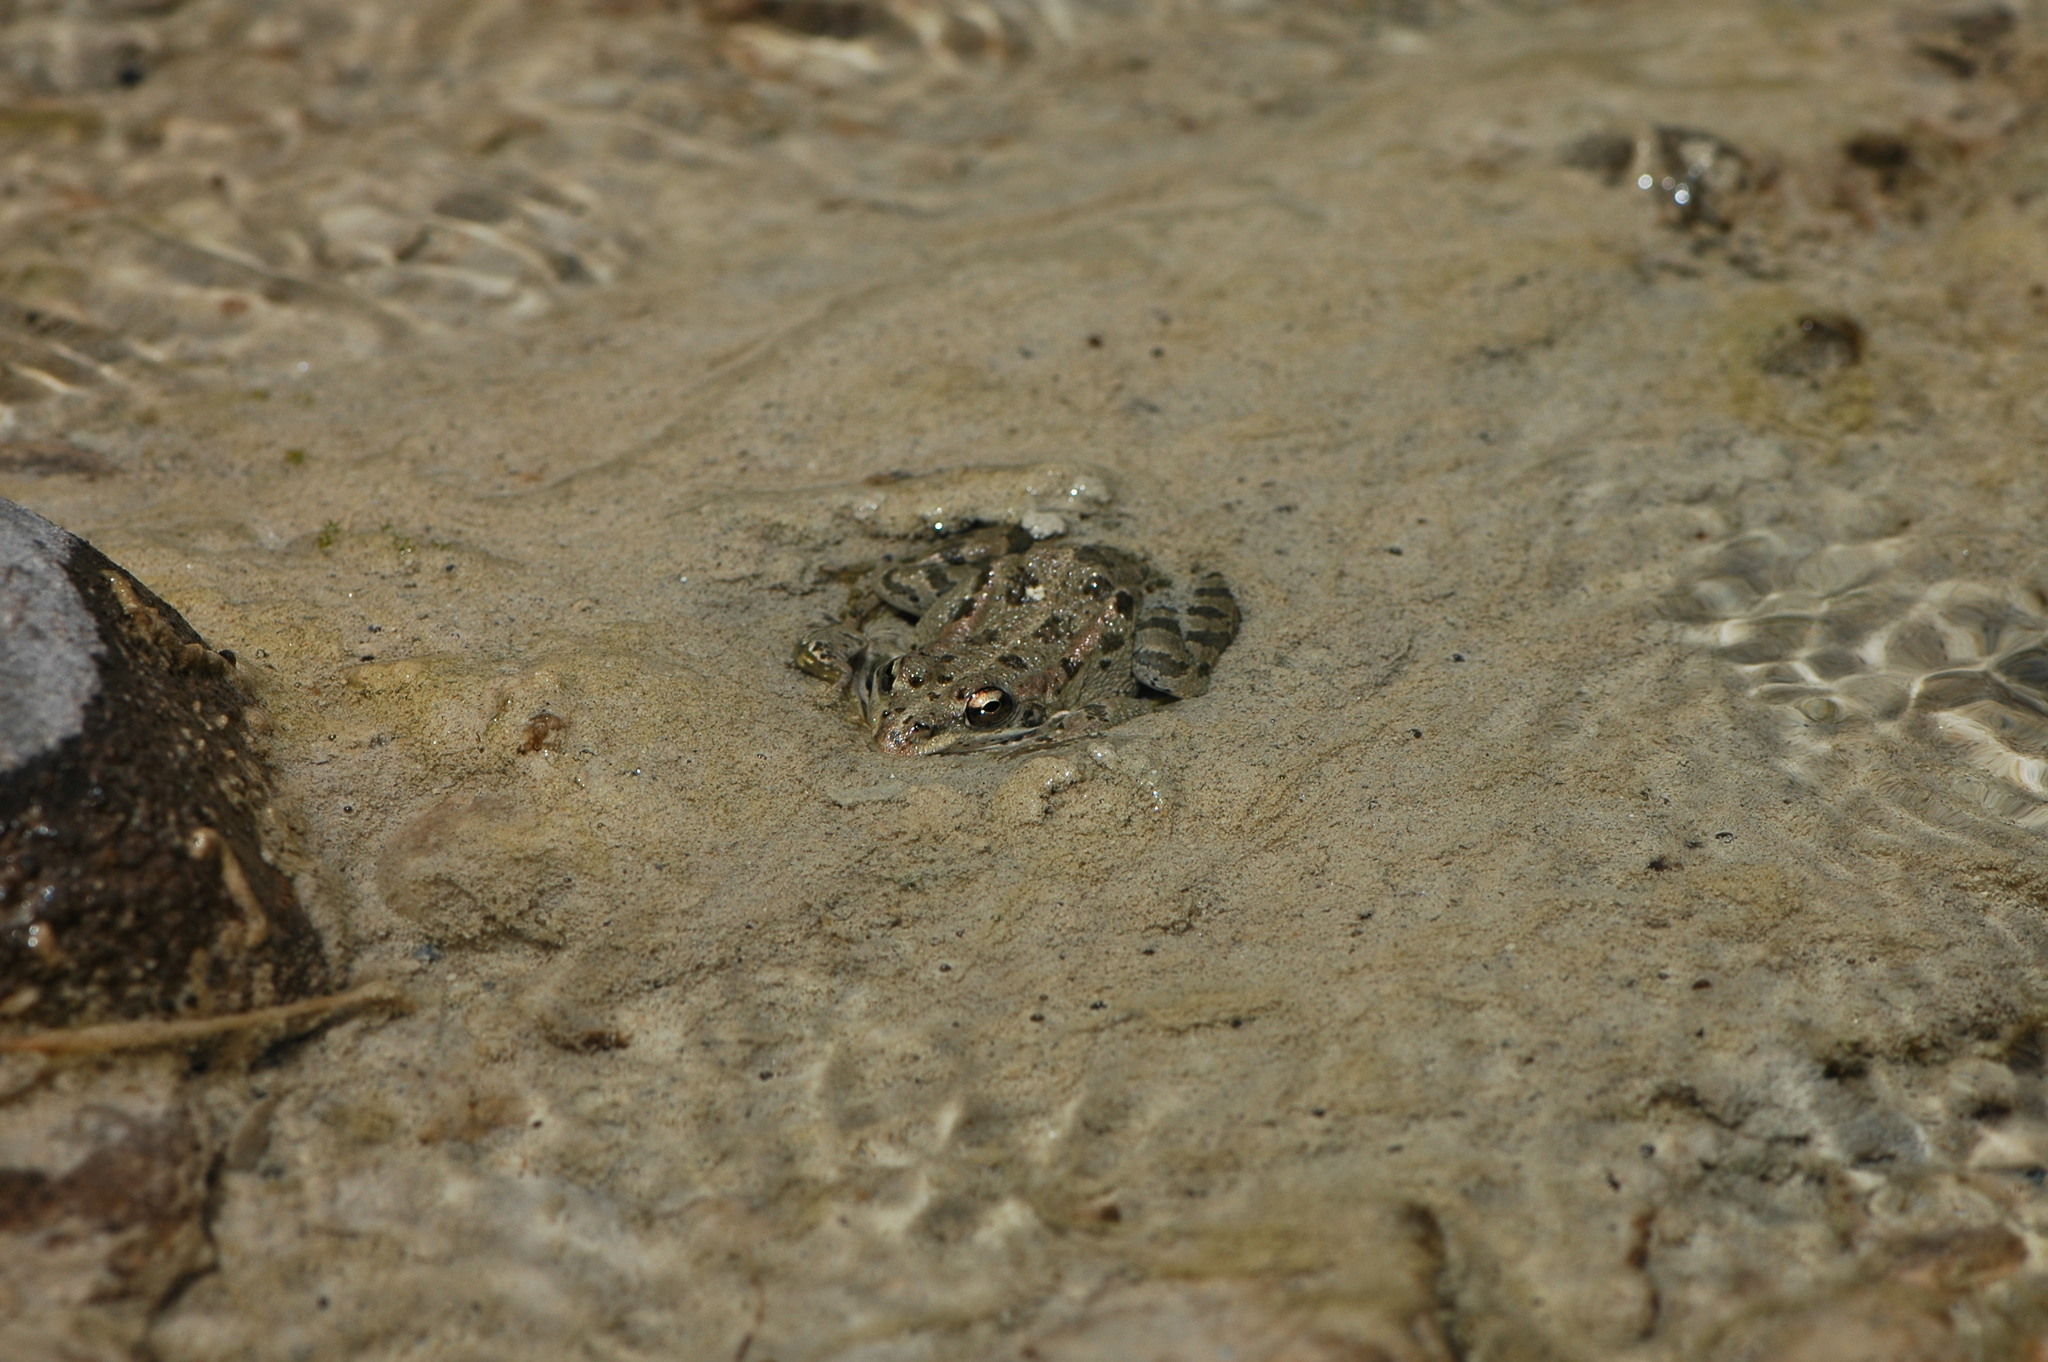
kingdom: Animalia
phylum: Chordata
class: Amphibia
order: Anura
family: Ranidae
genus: Pelophylax
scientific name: Pelophylax perezi
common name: Perez's frog
